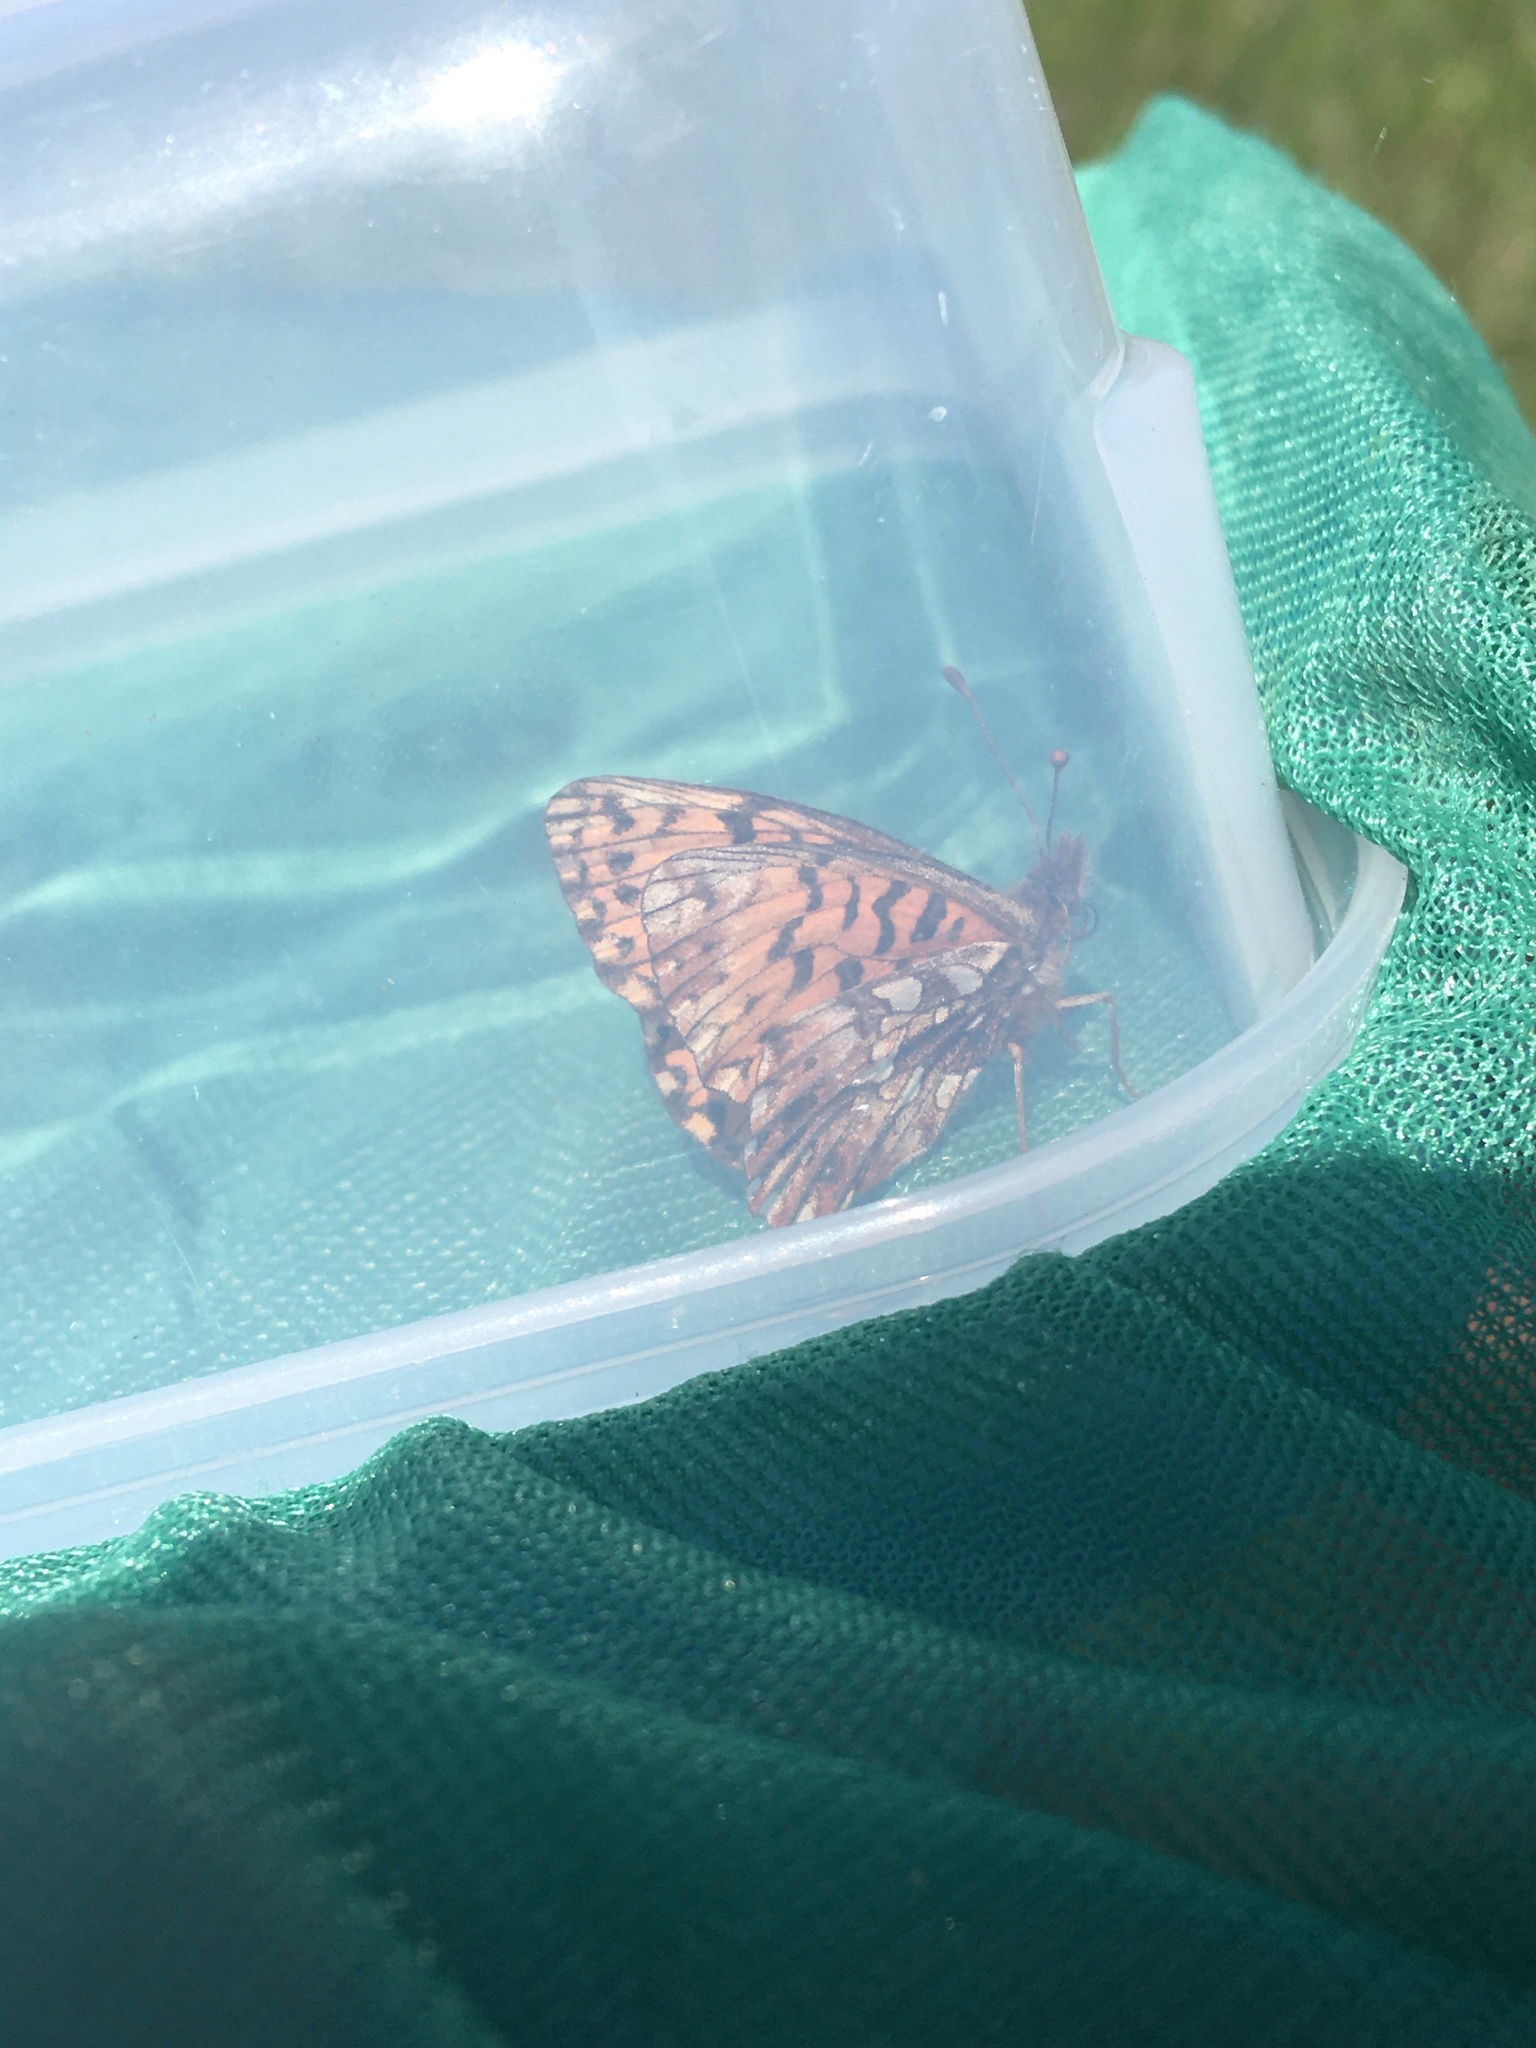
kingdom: Animalia
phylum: Arthropoda
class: Insecta
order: Lepidoptera
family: Nymphalidae
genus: Boloria
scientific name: Boloria dia
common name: Weaver's fritillary
